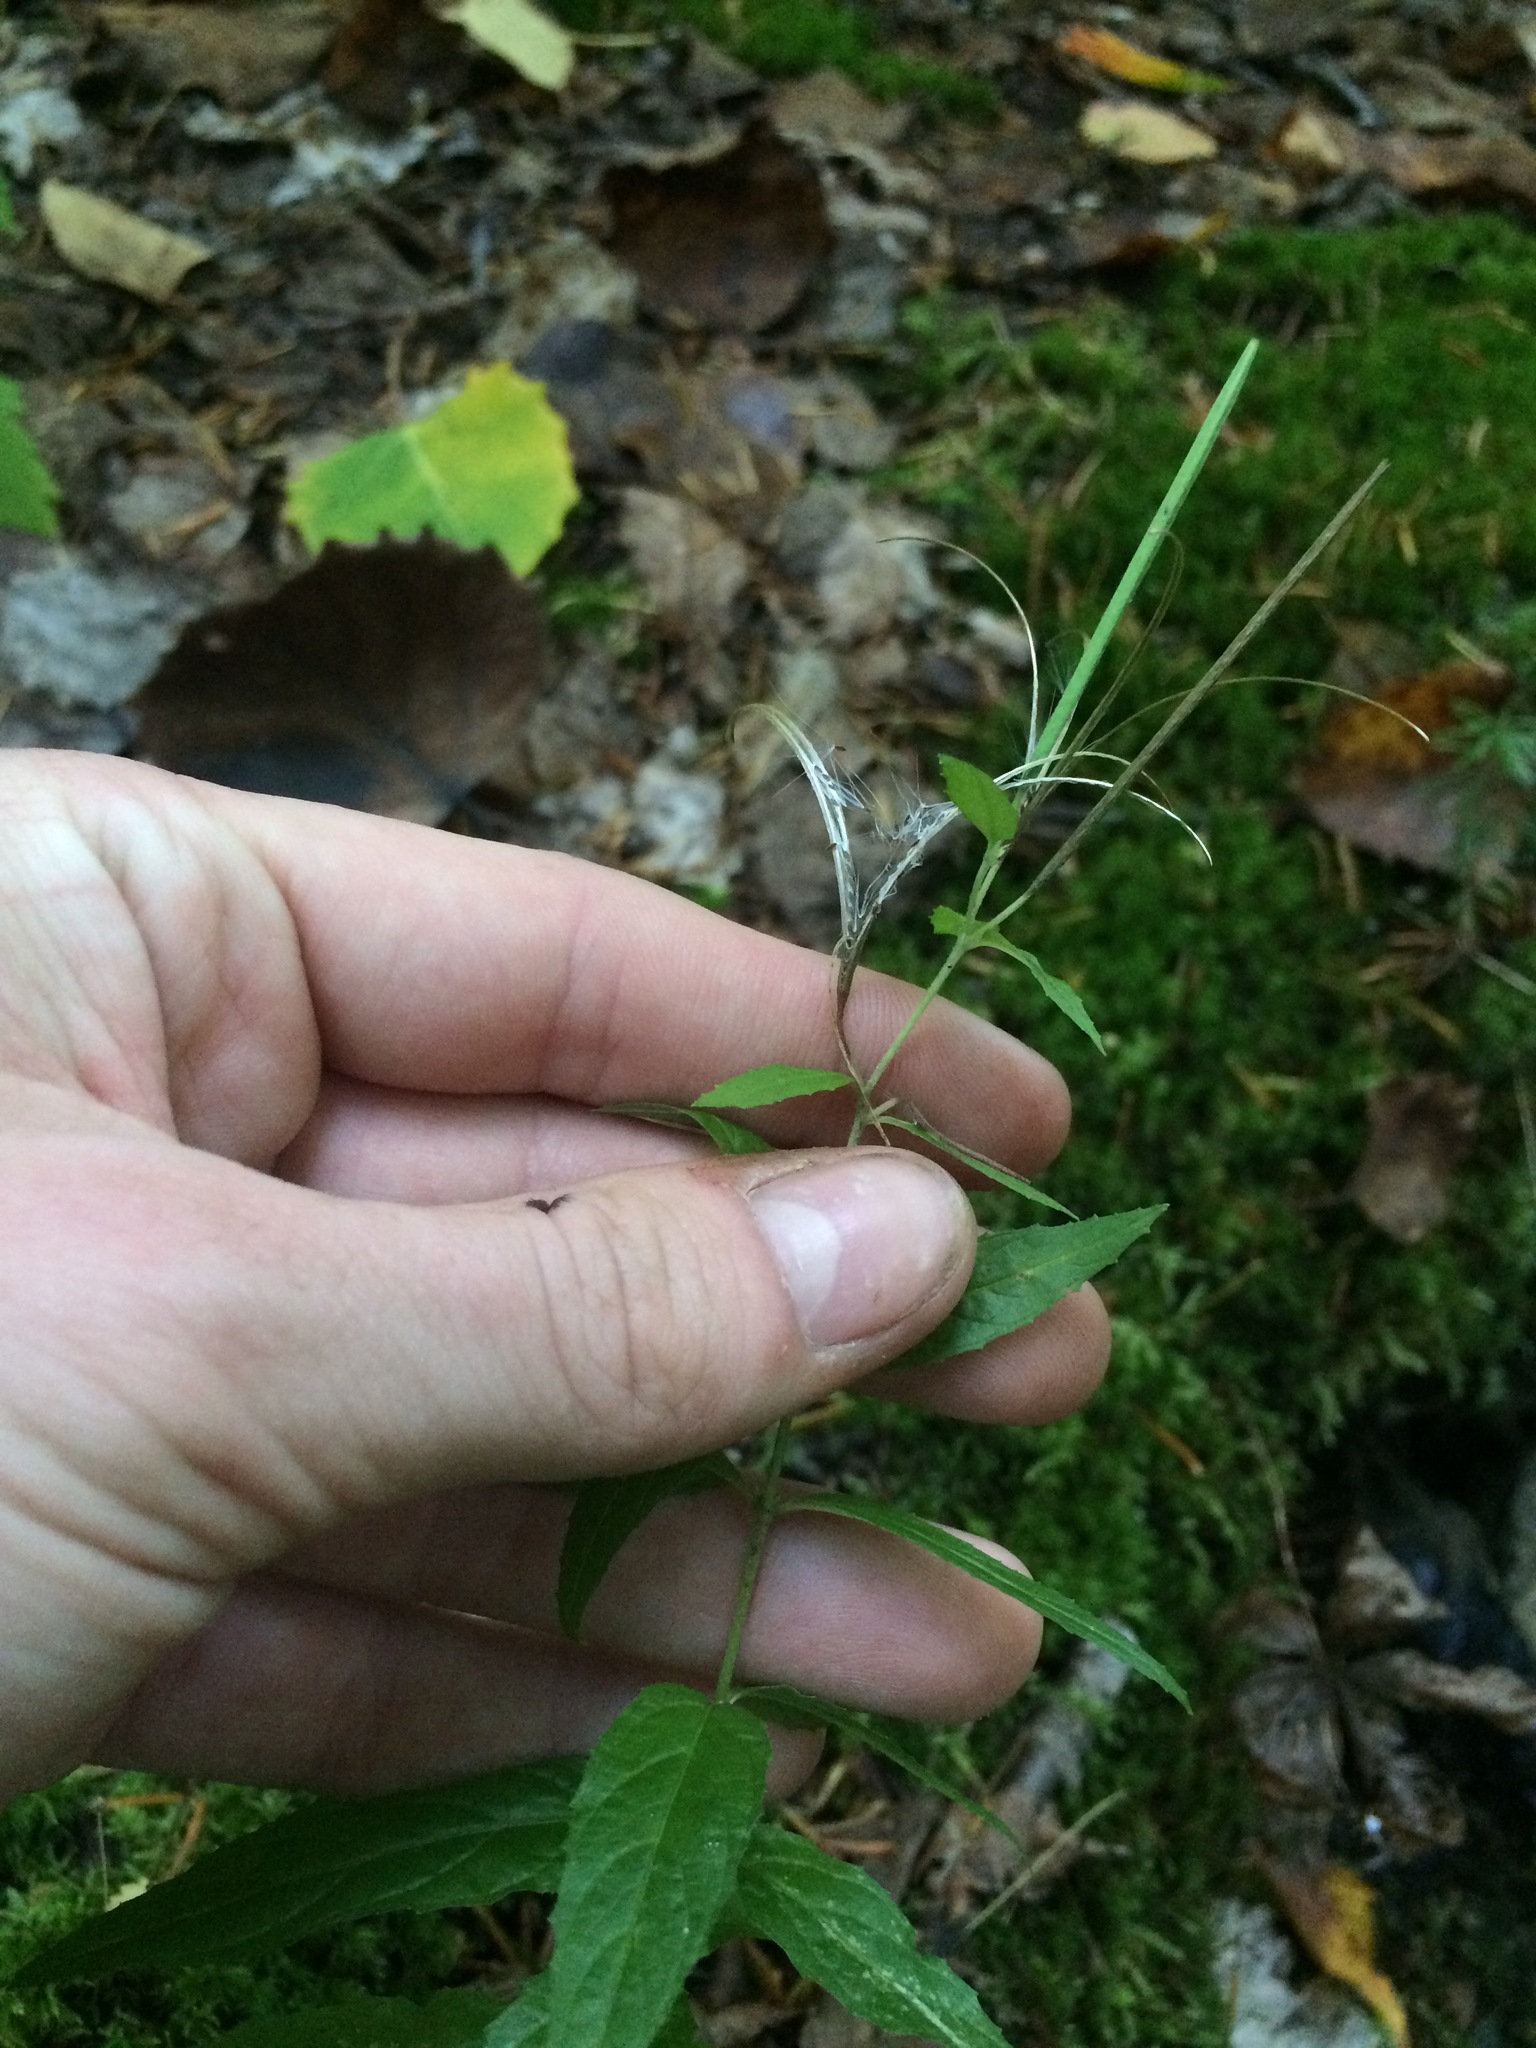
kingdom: Plantae
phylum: Tracheophyta
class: Magnoliopsida
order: Myrtales
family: Onagraceae
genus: Epilobium
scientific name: Epilobium ciliatum
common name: American willowherb
